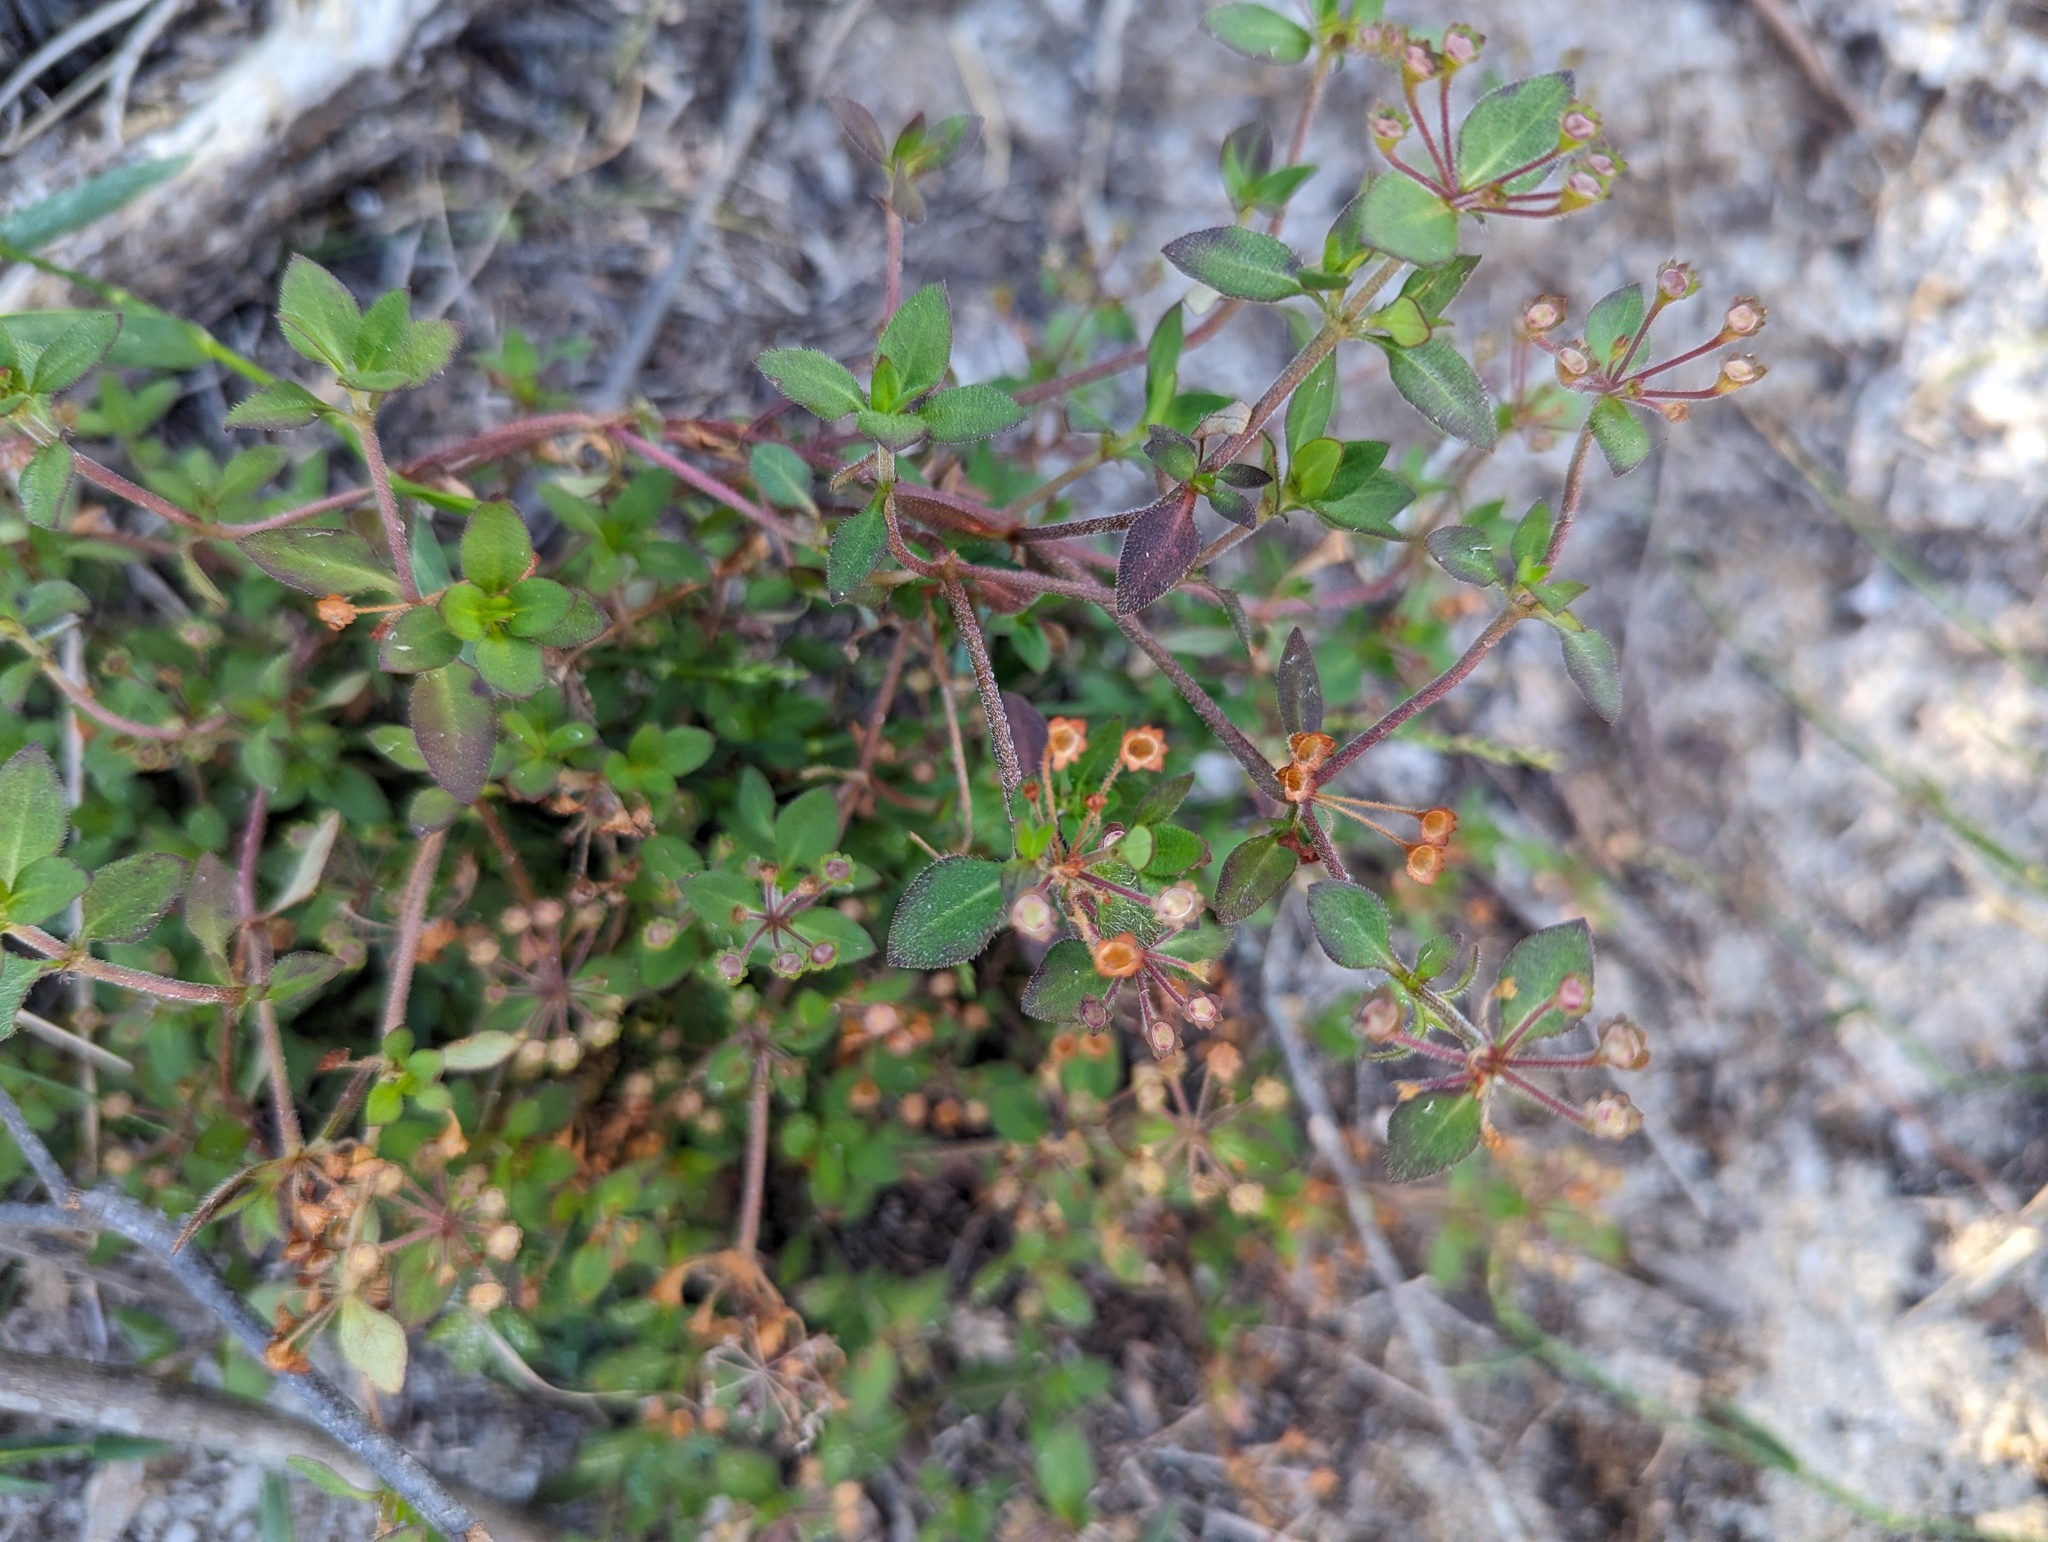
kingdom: Plantae
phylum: Tracheophyta
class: Magnoliopsida
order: Gentianales
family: Rubiaceae
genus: Pomax
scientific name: Pomax umbellata
